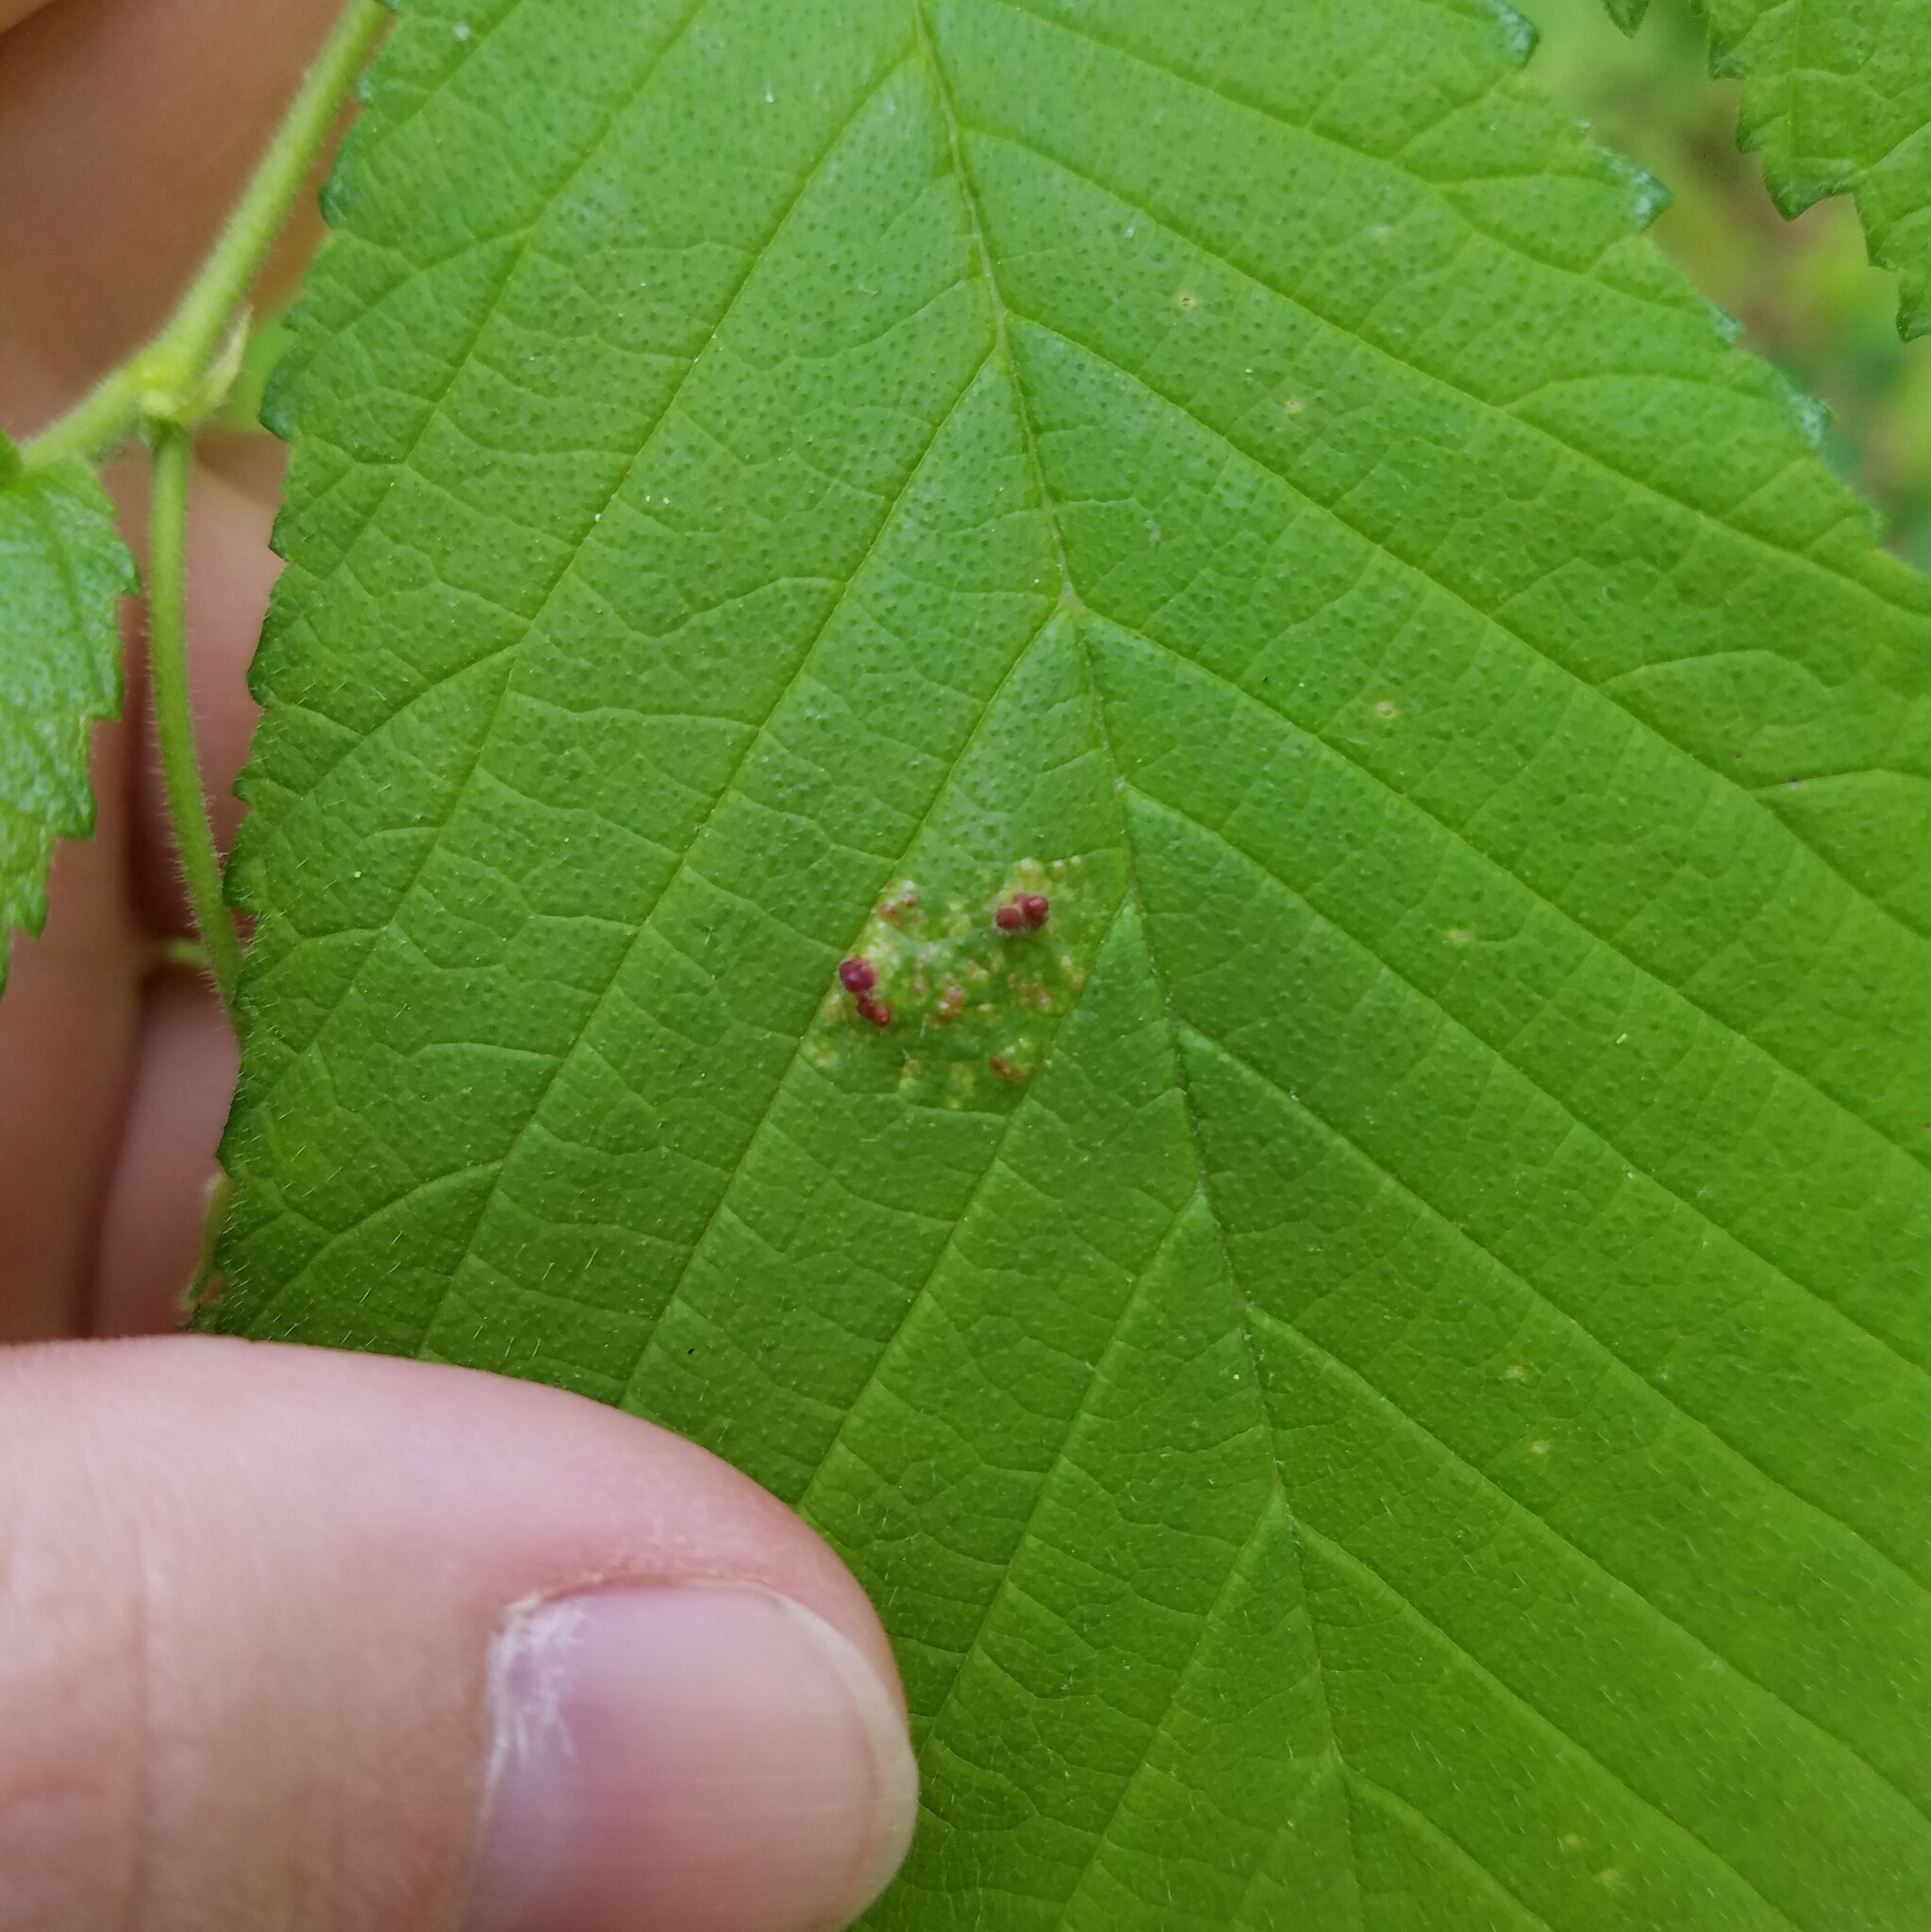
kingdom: Animalia
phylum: Arthropoda
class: Insecta
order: Hemiptera
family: Aphididae
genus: Tetraneura
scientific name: Tetraneura nigriabdominalis
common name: Aphid
